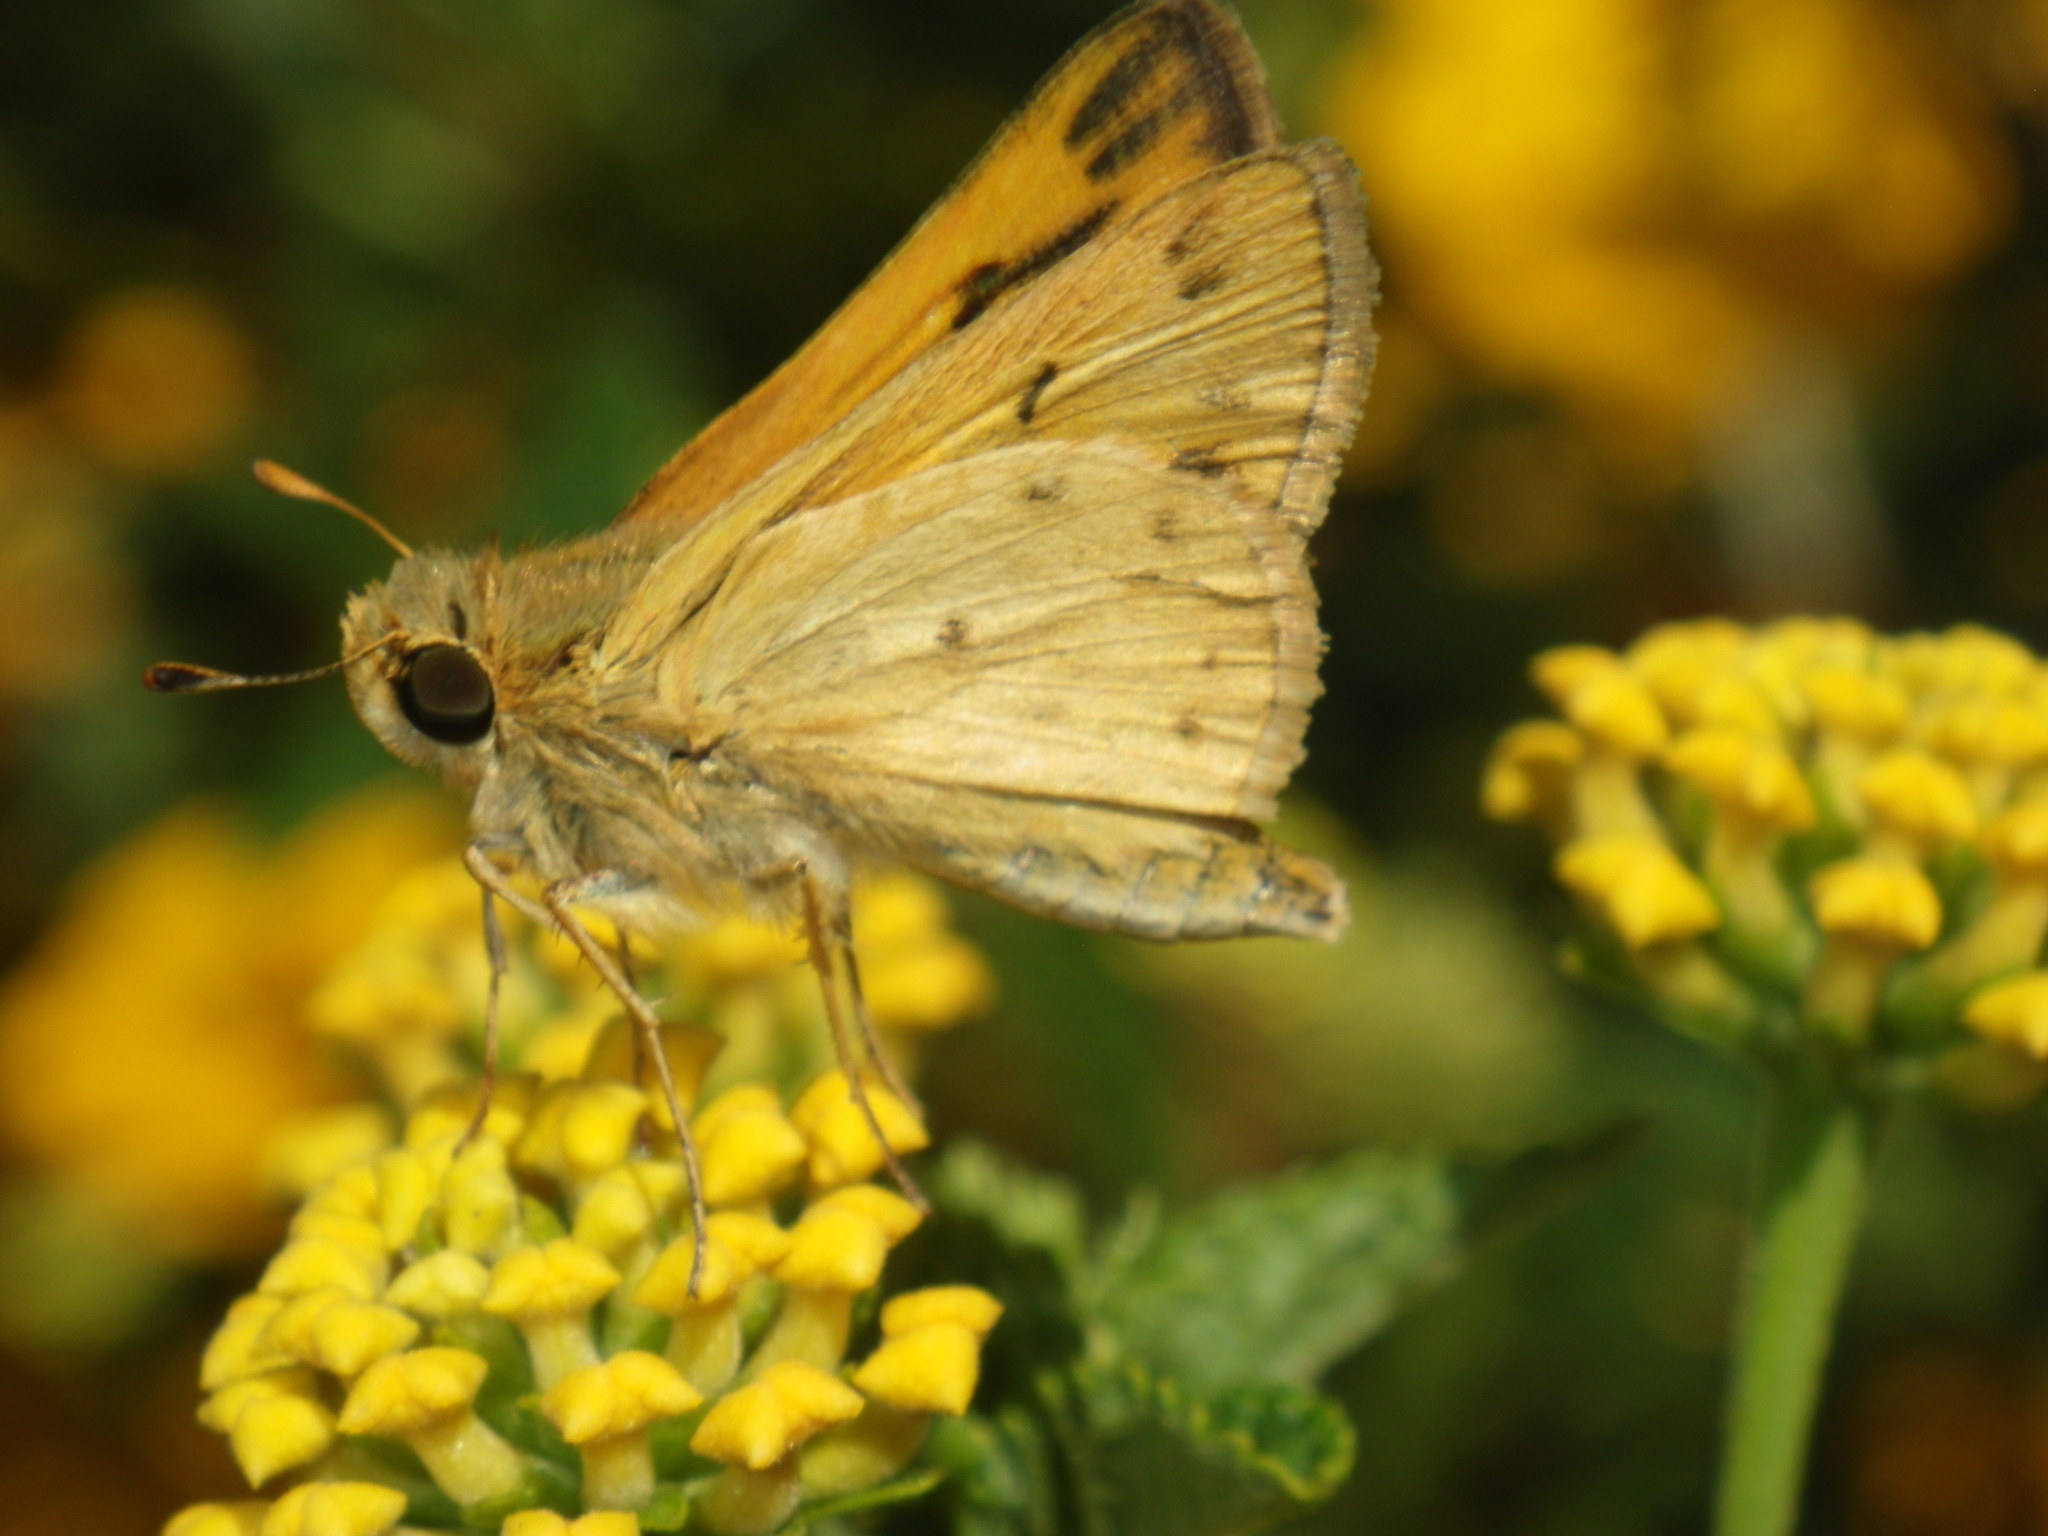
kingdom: Animalia
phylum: Arthropoda
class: Insecta
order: Lepidoptera
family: Hesperiidae
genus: Hylephila
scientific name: Hylephila phyleus
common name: Fiery skipper
